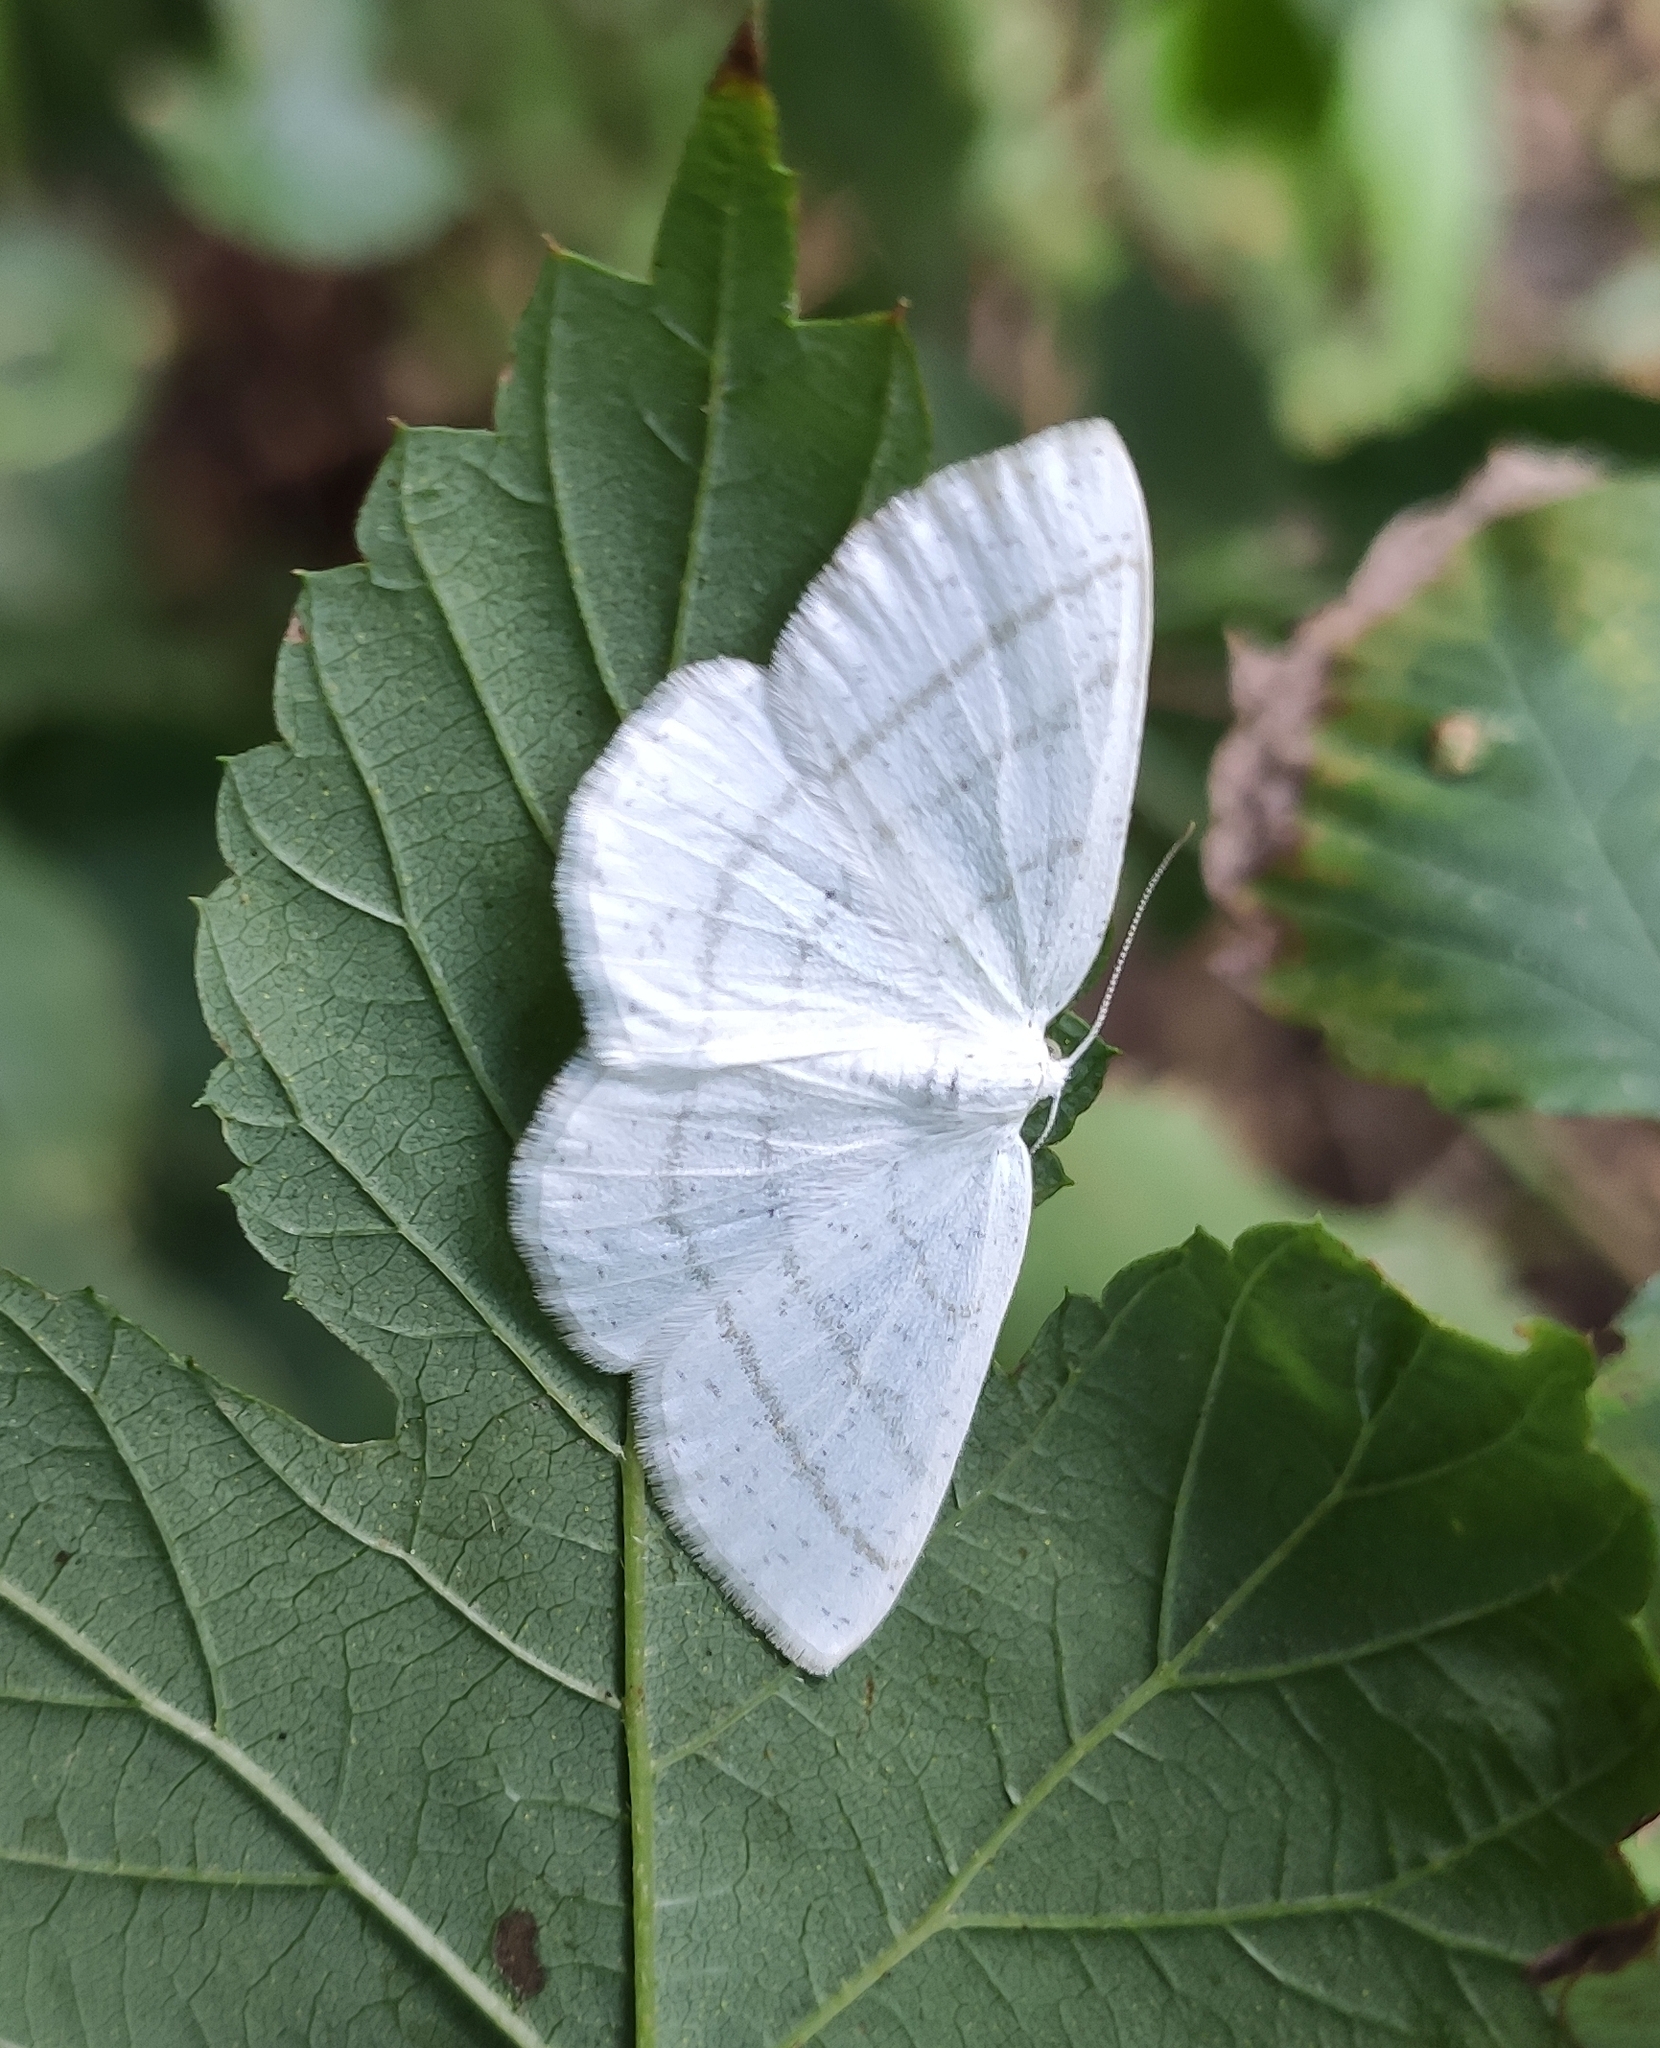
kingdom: Animalia
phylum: Arthropoda
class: Insecta
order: Lepidoptera
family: Geometridae
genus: Cabera
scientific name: Cabera pusaria
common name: Common white wave
